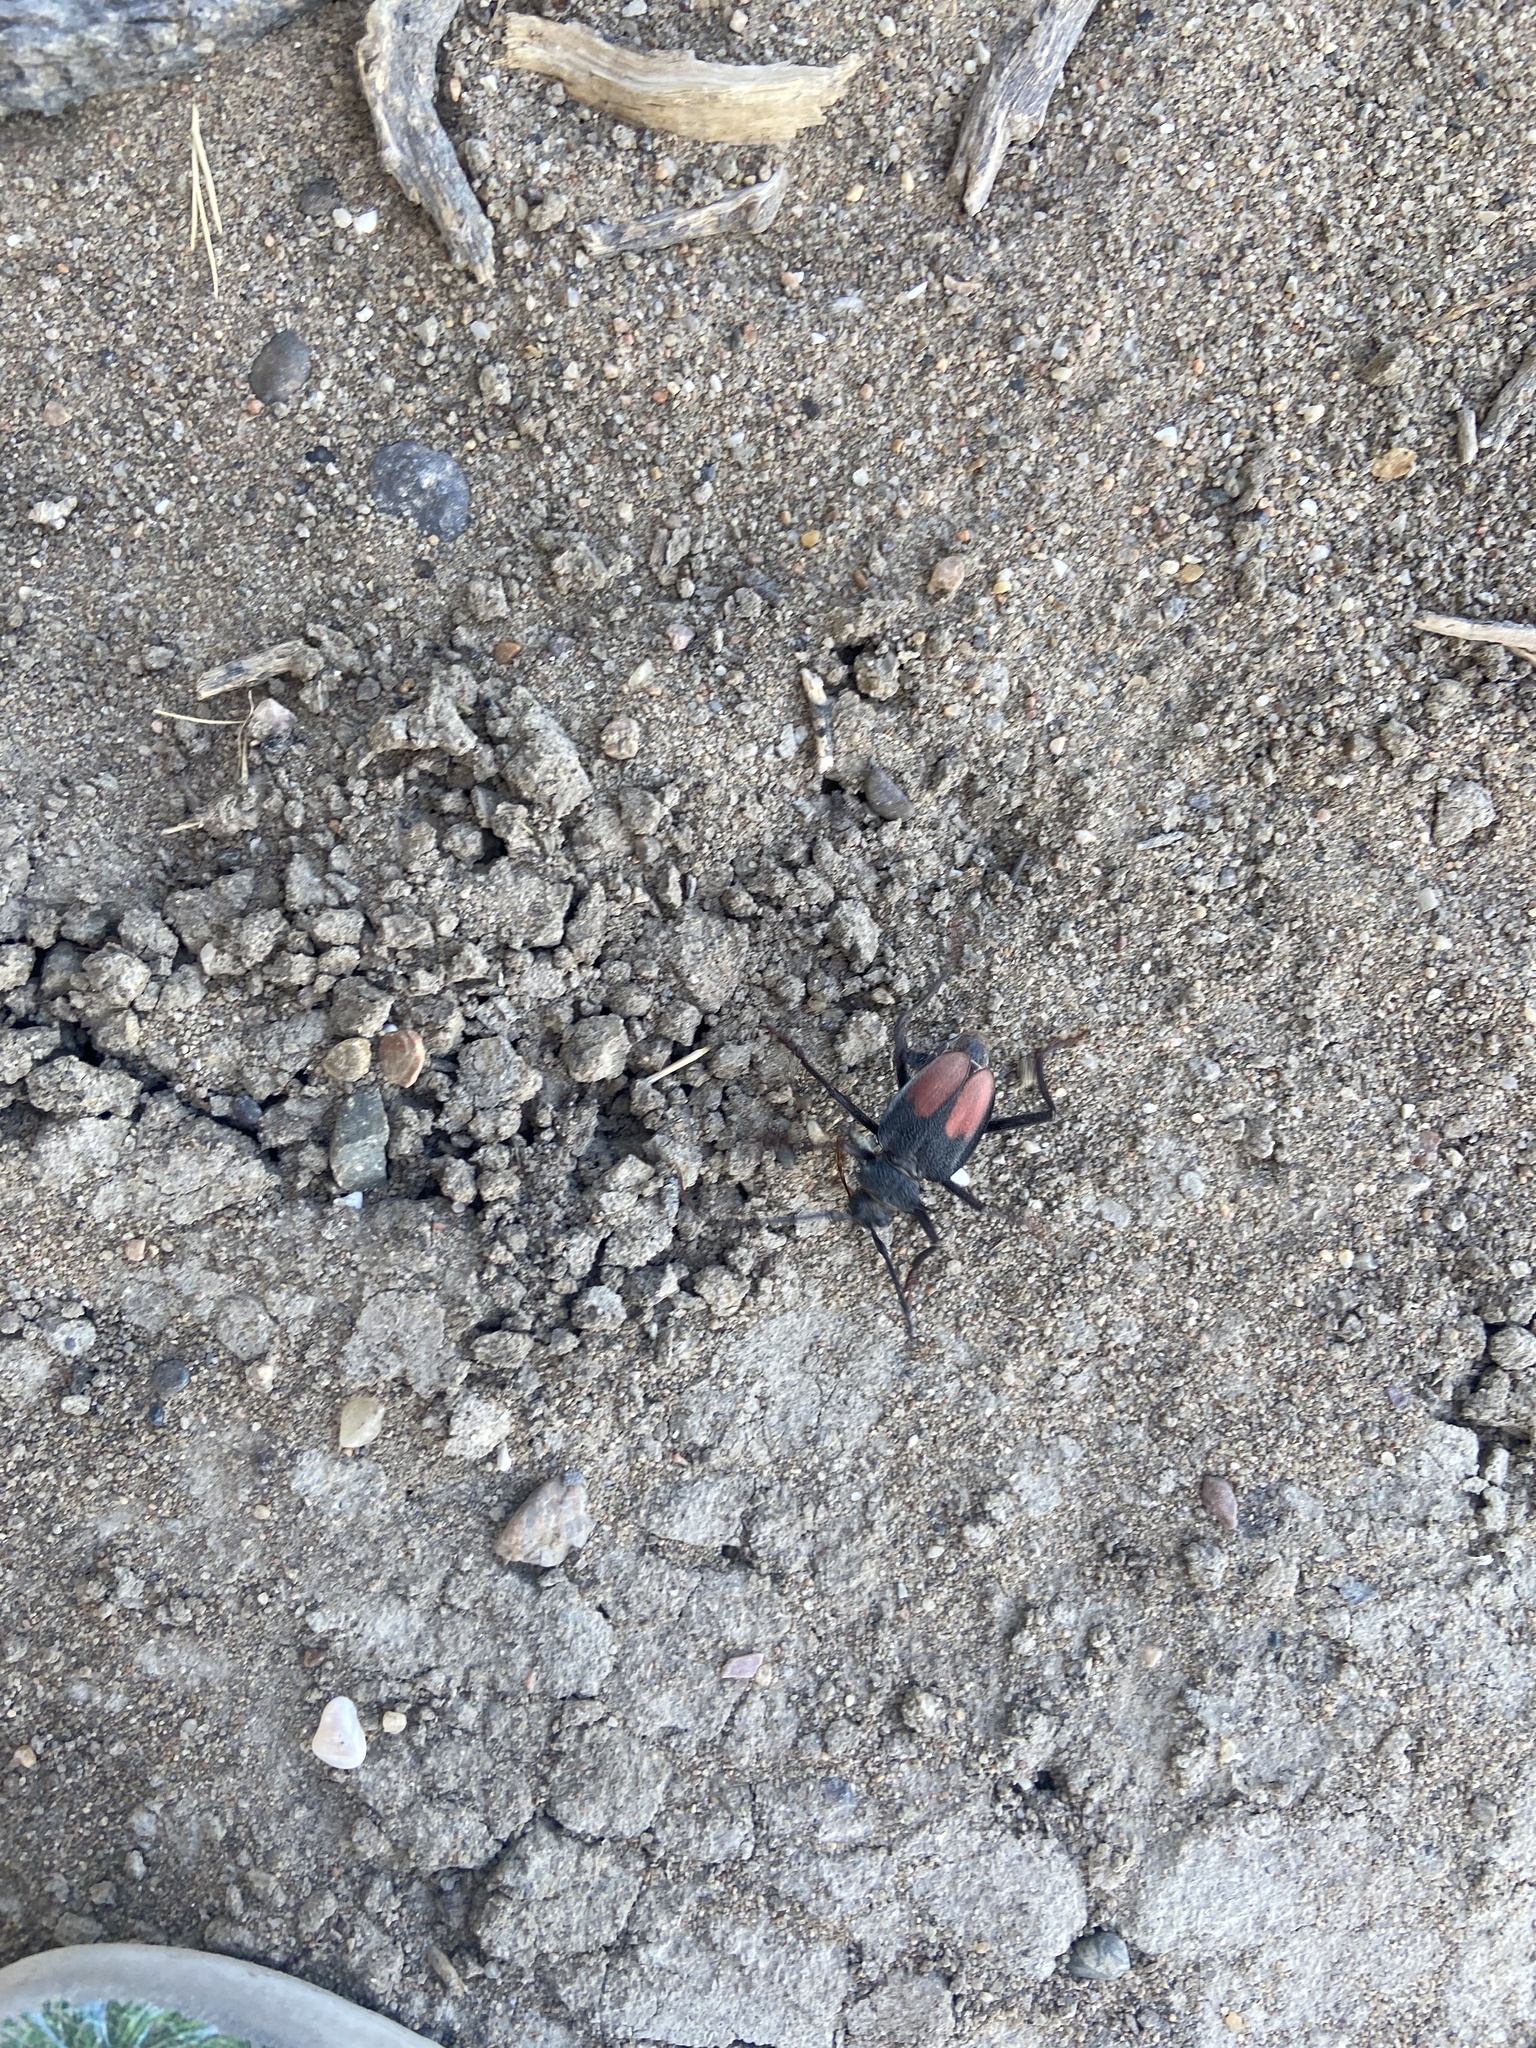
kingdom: Animalia
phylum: Arthropoda
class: Insecta
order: Coleoptera
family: Cerambycidae
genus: Apterocaulus
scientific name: Apterocaulus heterogama
